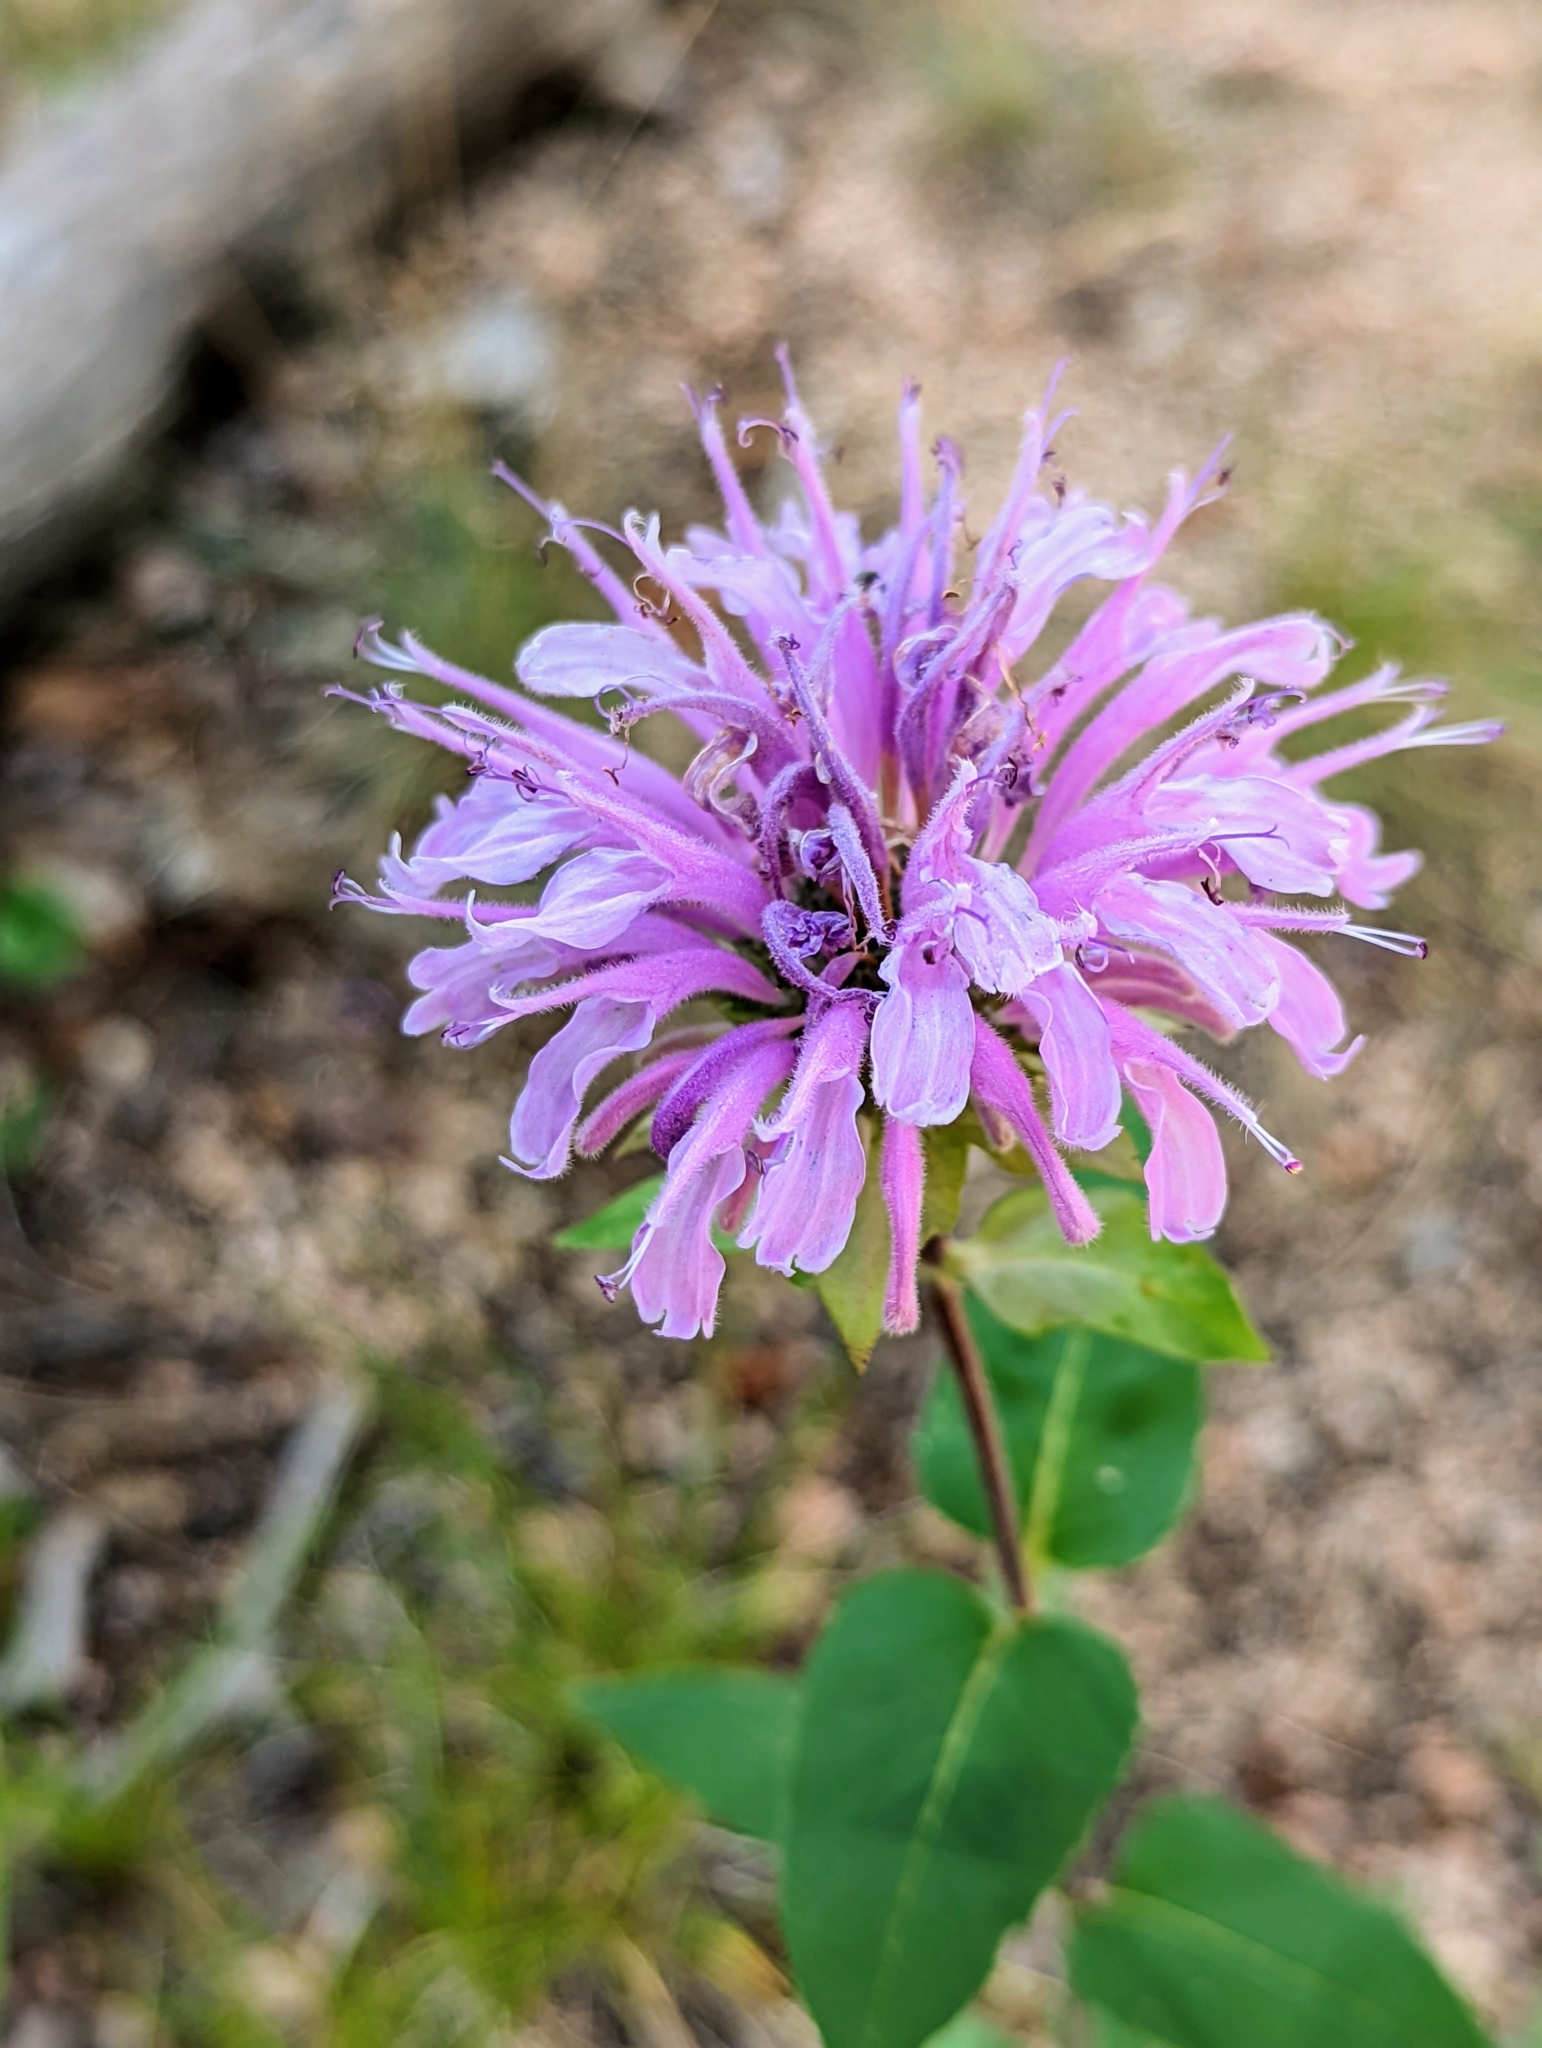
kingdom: Plantae
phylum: Tracheophyta
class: Magnoliopsida
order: Lamiales
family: Lamiaceae
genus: Monarda
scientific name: Monarda fistulosa
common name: Purple beebalm
